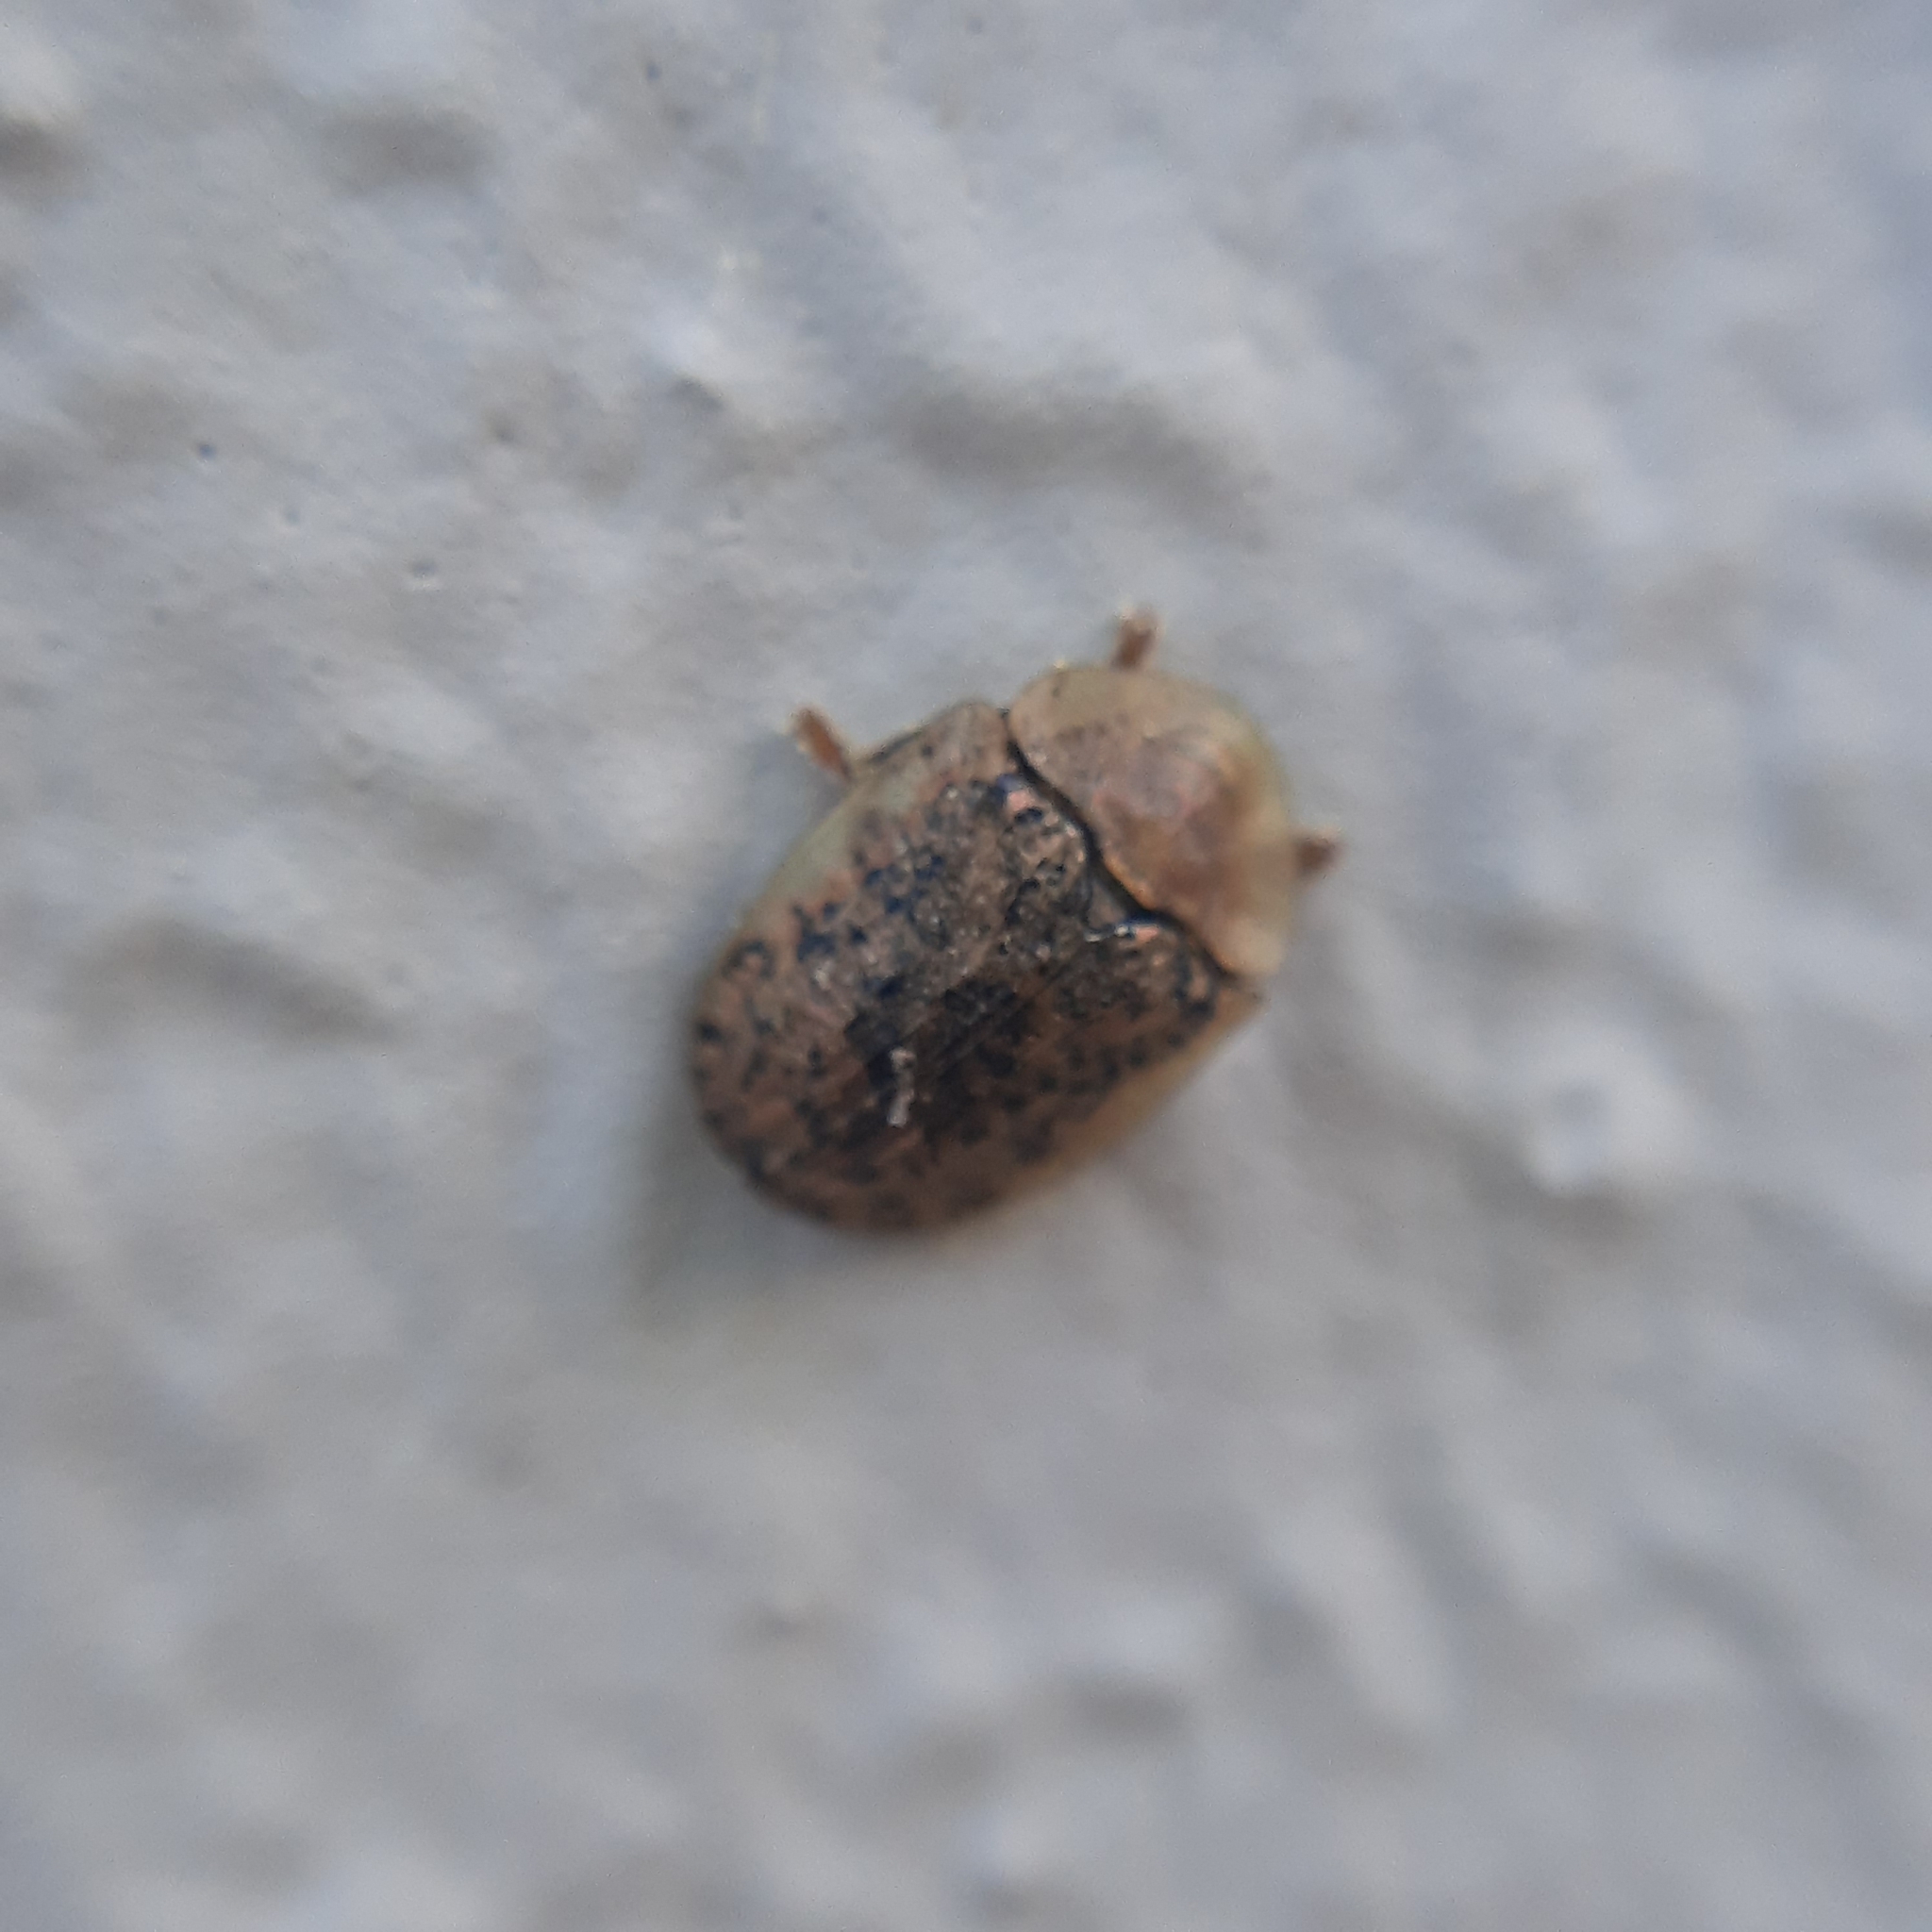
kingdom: Animalia
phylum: Arthropoda
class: Insecta
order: Coleoptera
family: Chrysomelidae
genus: Cassida
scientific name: Cassida nebulosa
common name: Beet tortoise beetle
